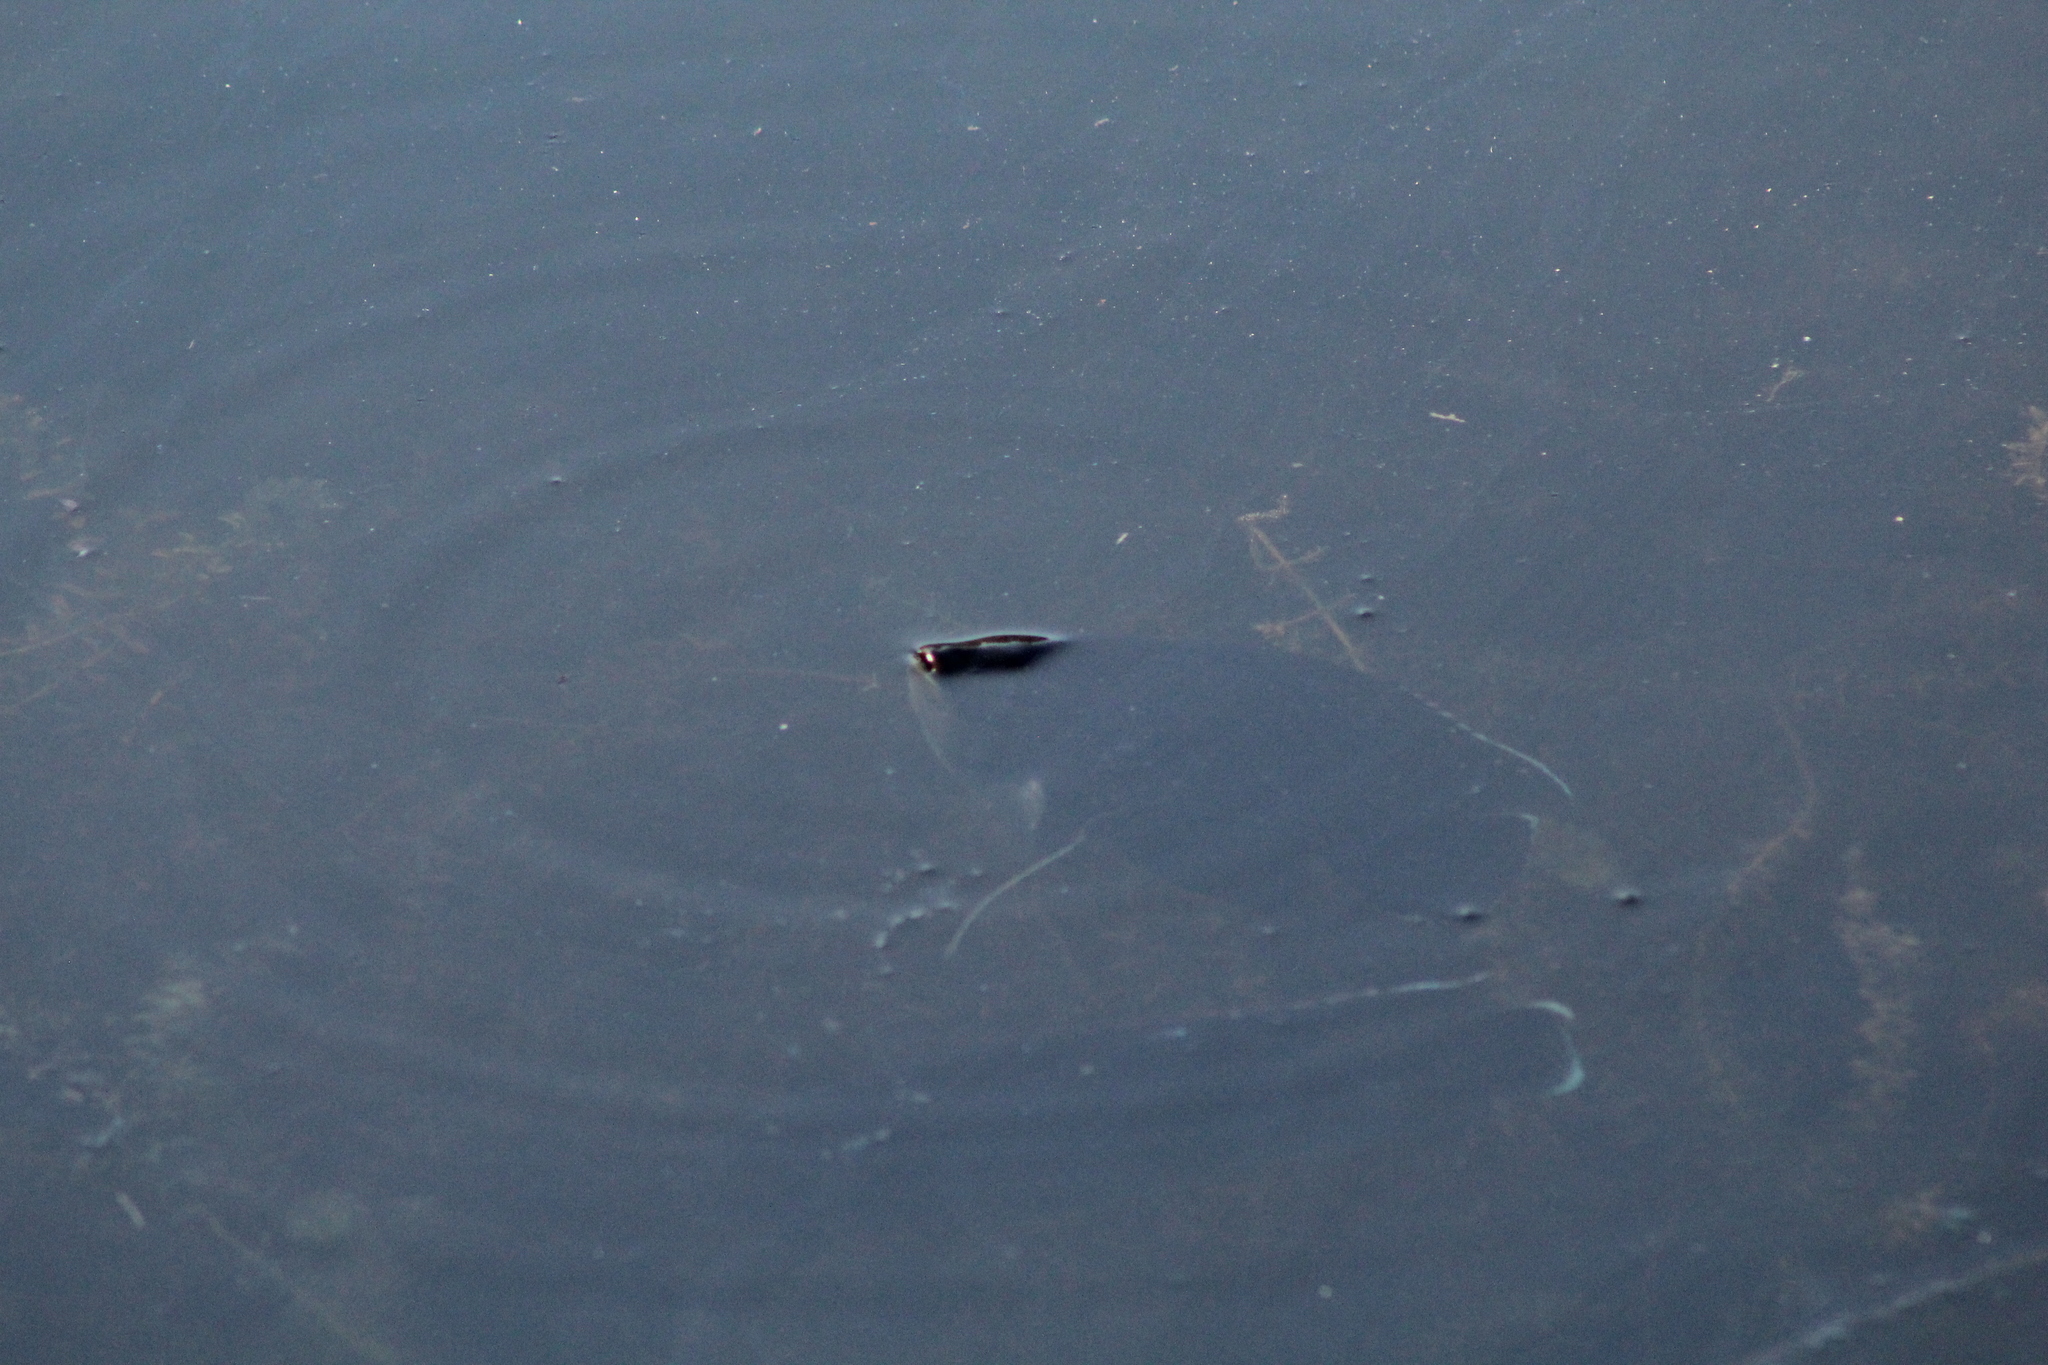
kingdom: Animalia
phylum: Chordata
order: Perciformes
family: Cichlidae
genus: Pelmatolapia
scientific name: Pelmatolapia mariae
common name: Spotted tilapia
